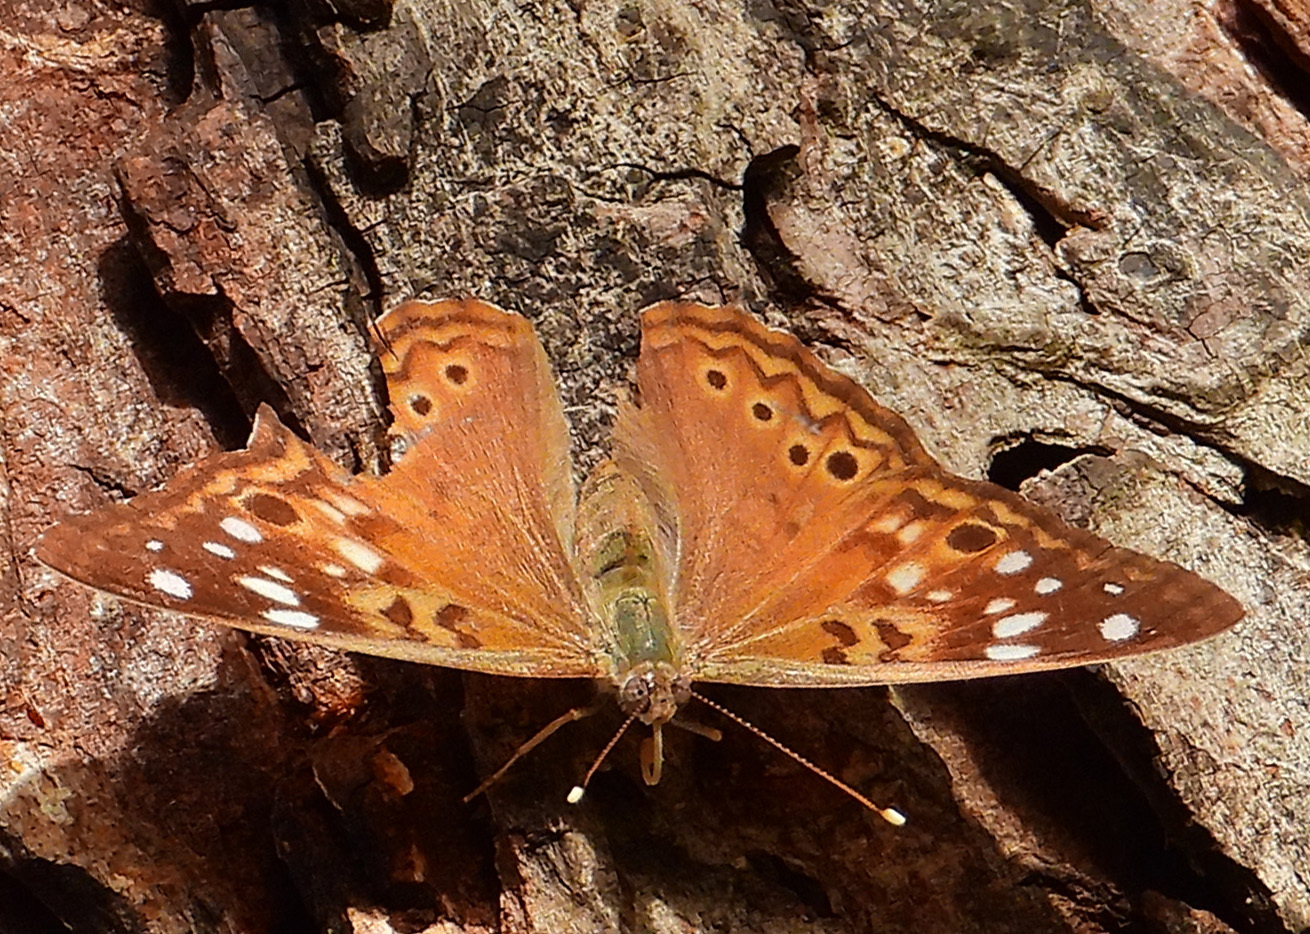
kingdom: Animalia
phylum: Arthropoda
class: Insecta
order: Lepidoptera
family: Nymphalidae
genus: Asterocampa
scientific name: Asterocampa celtis
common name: Hackberry emperor
